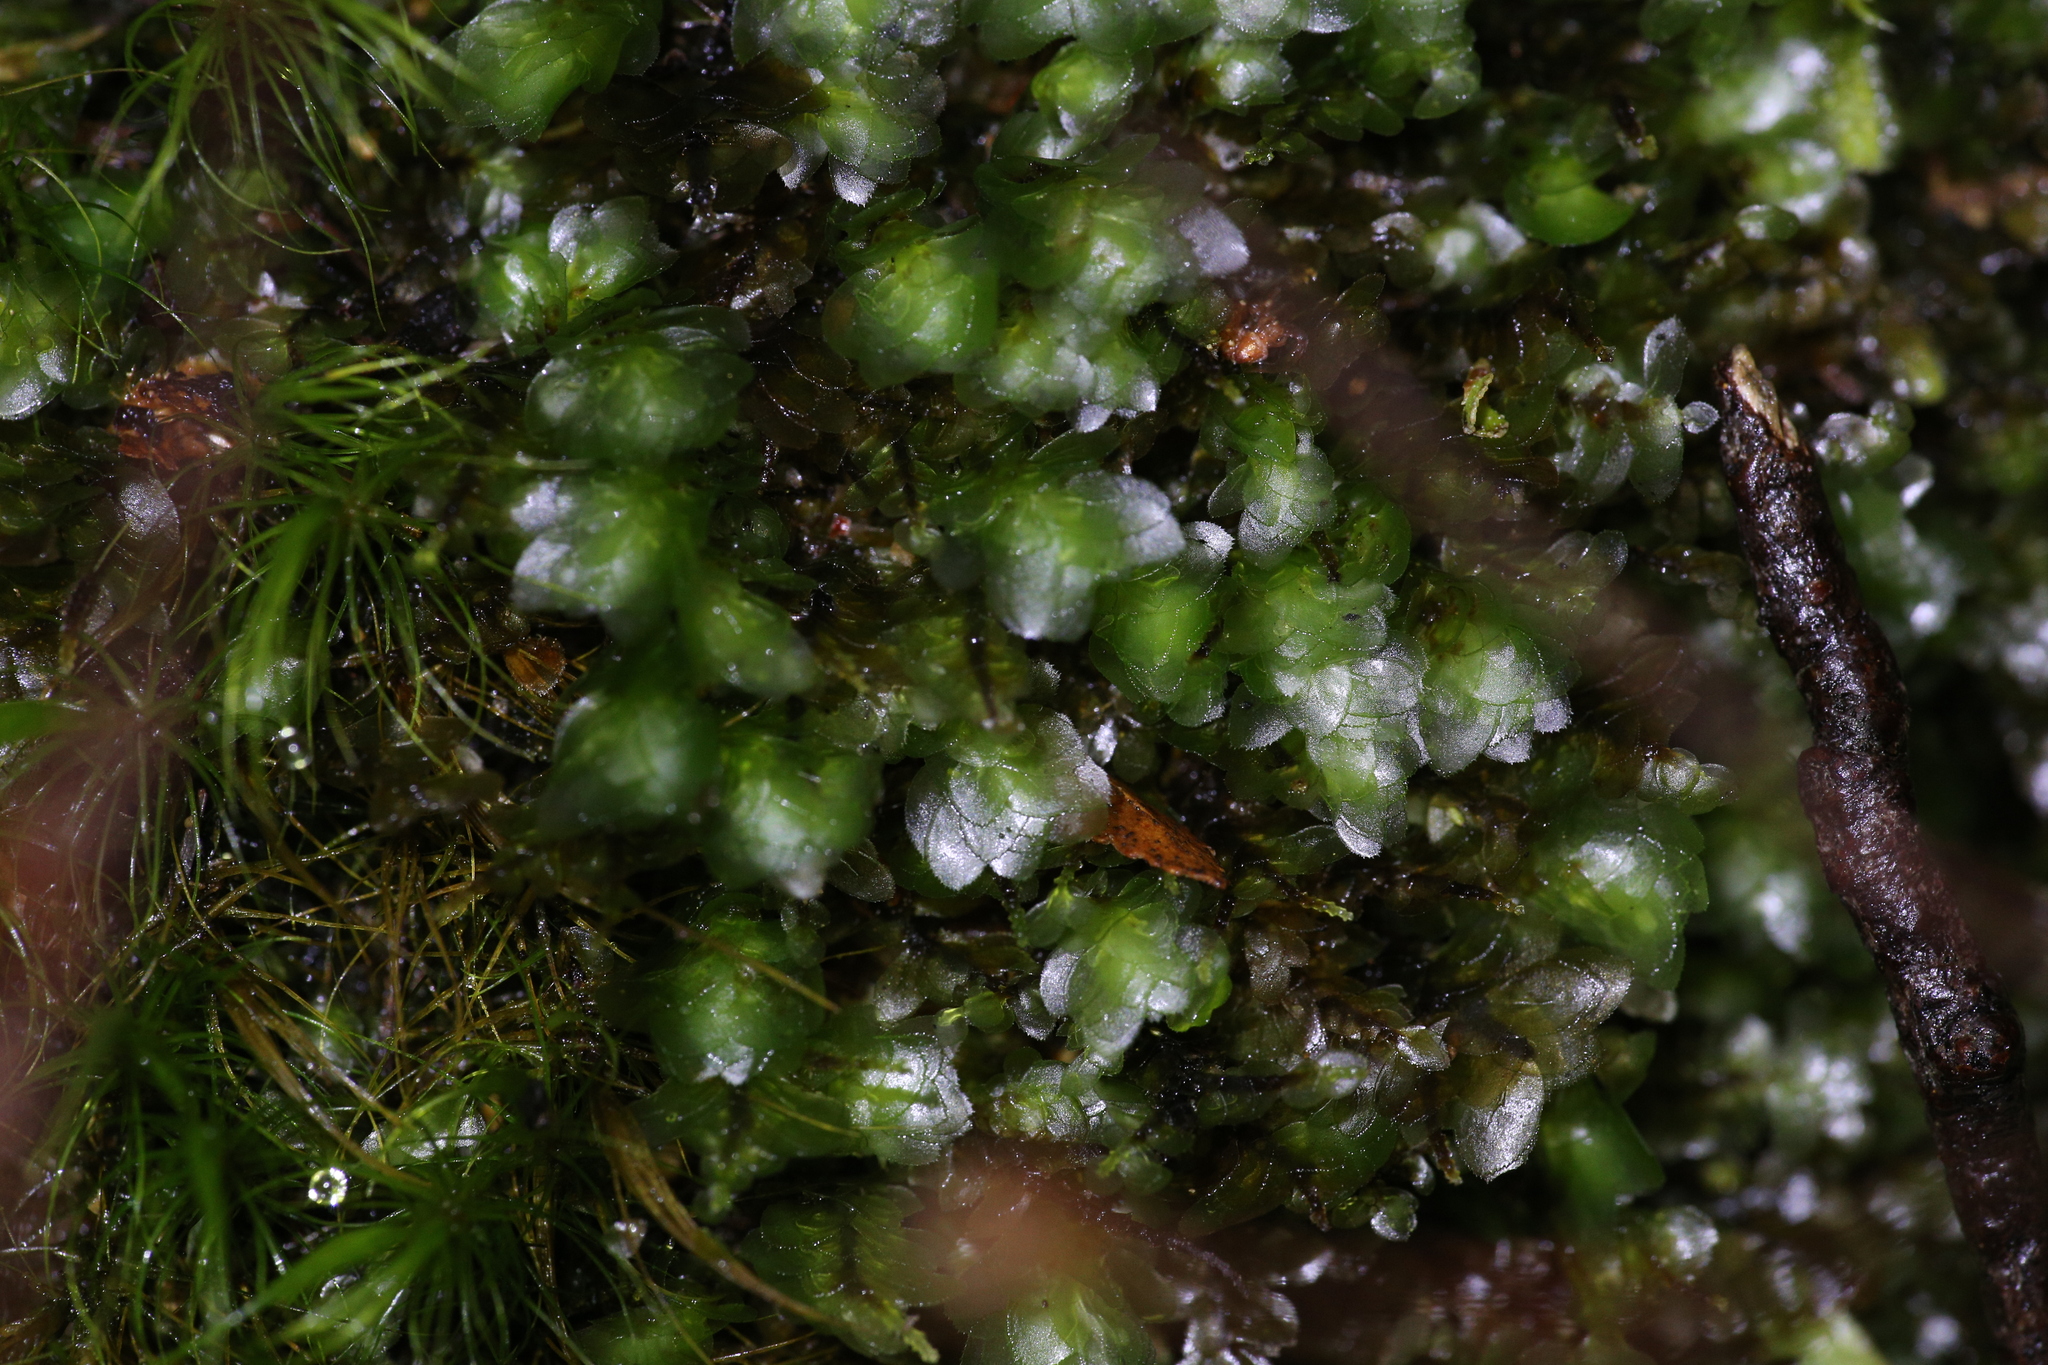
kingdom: Plantae
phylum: Bryophyta
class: Bryopsida
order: Hookeriales
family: Daltoniaceae
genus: Achrophyllum
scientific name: Achrophyllum dentatum
